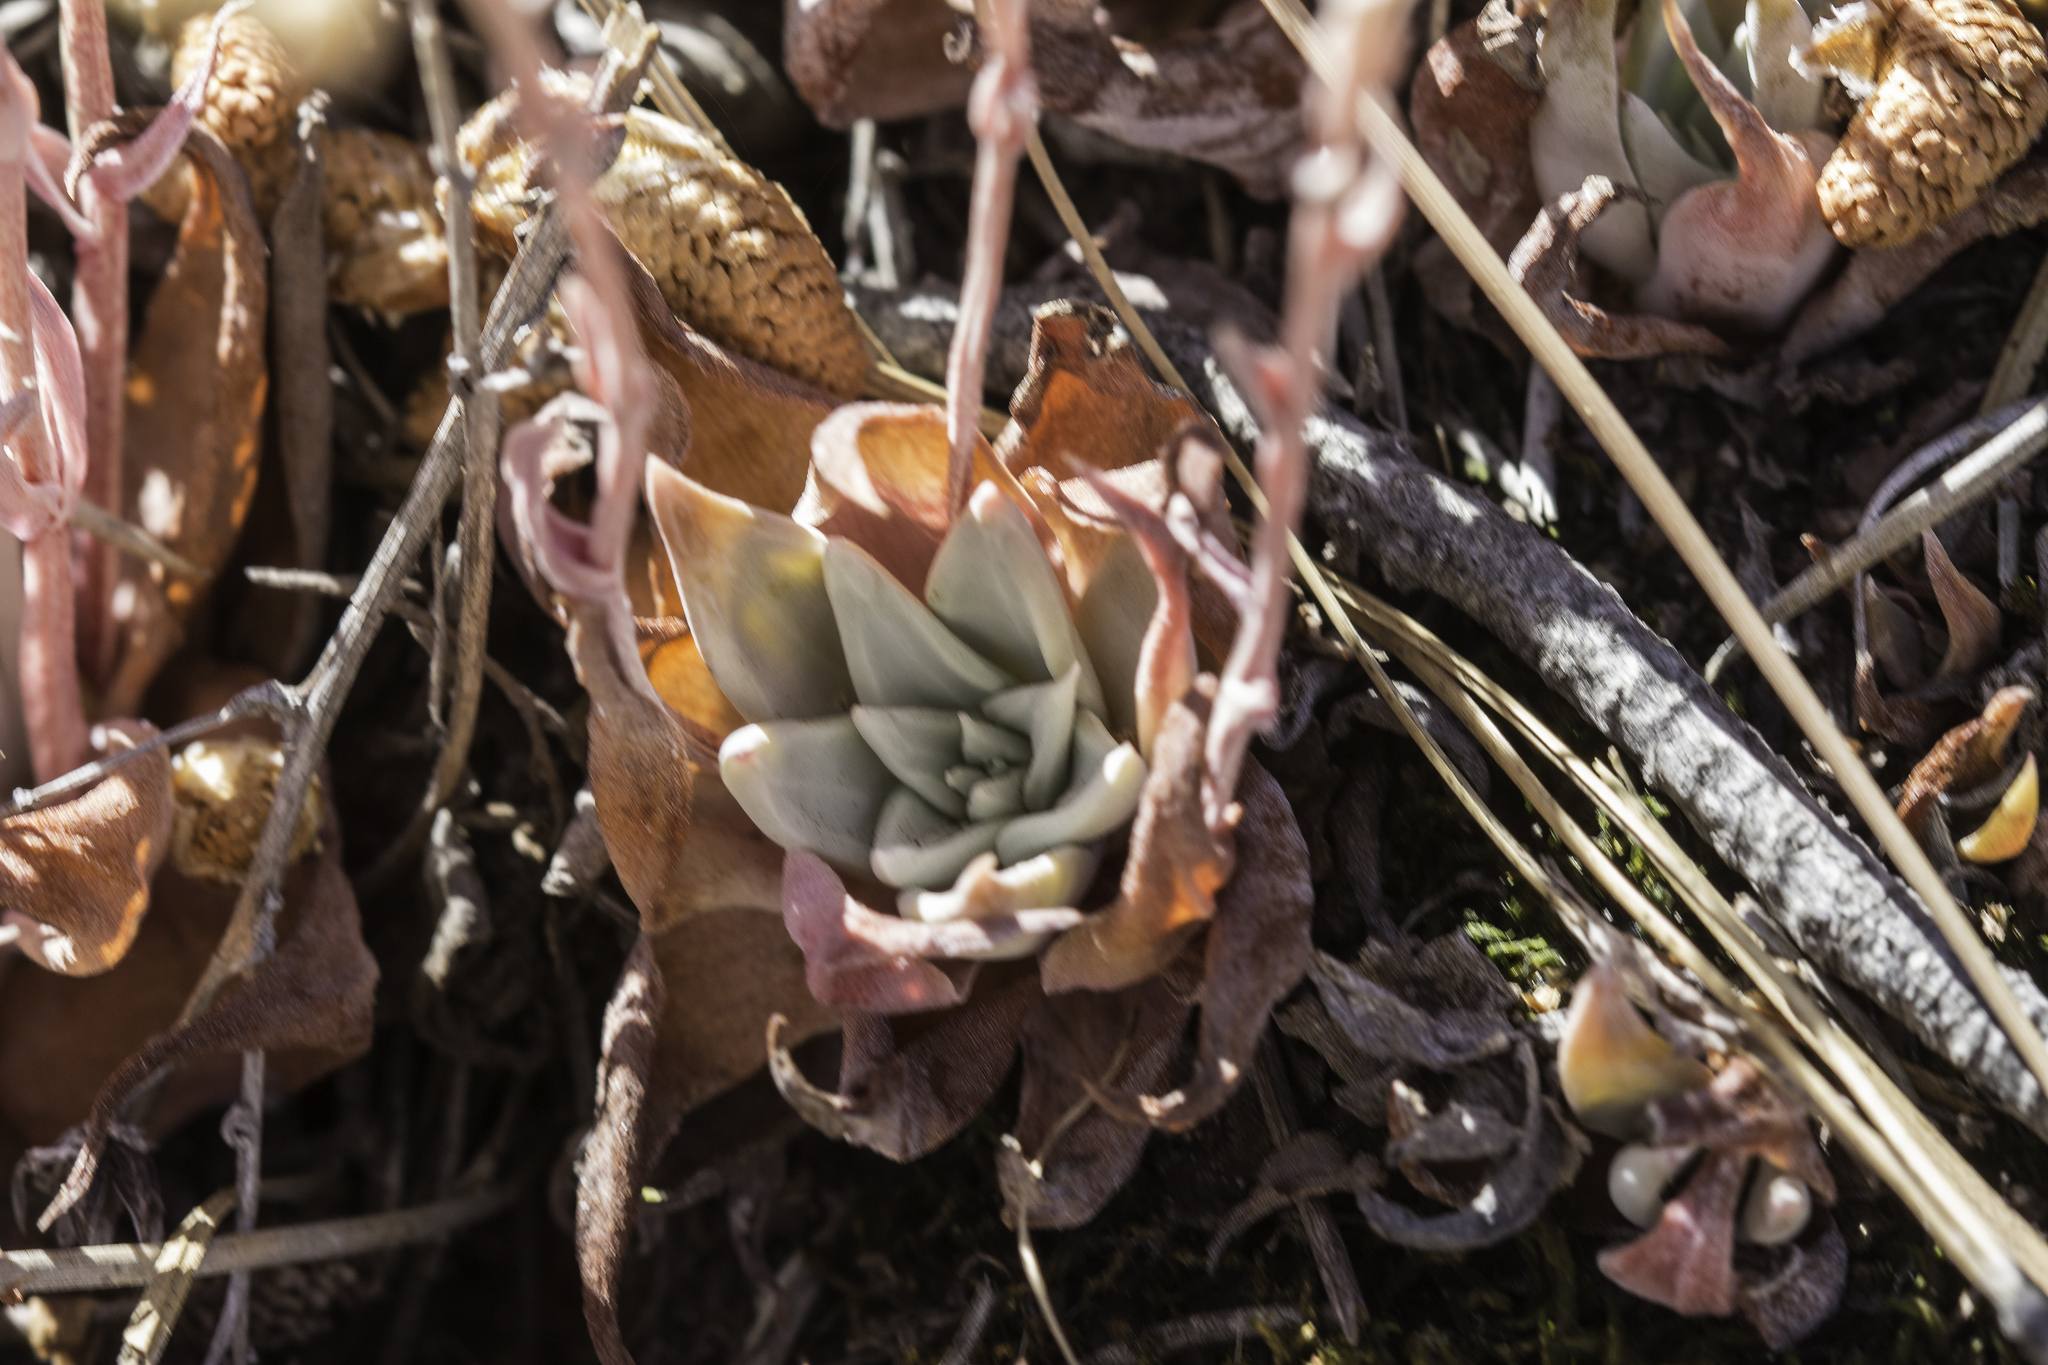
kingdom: Plantae
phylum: Tracheophyta
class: Magnoliopsida
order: Saxifragales
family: Crassulaceae
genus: Dudleya
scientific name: Dudleya lanceolata
